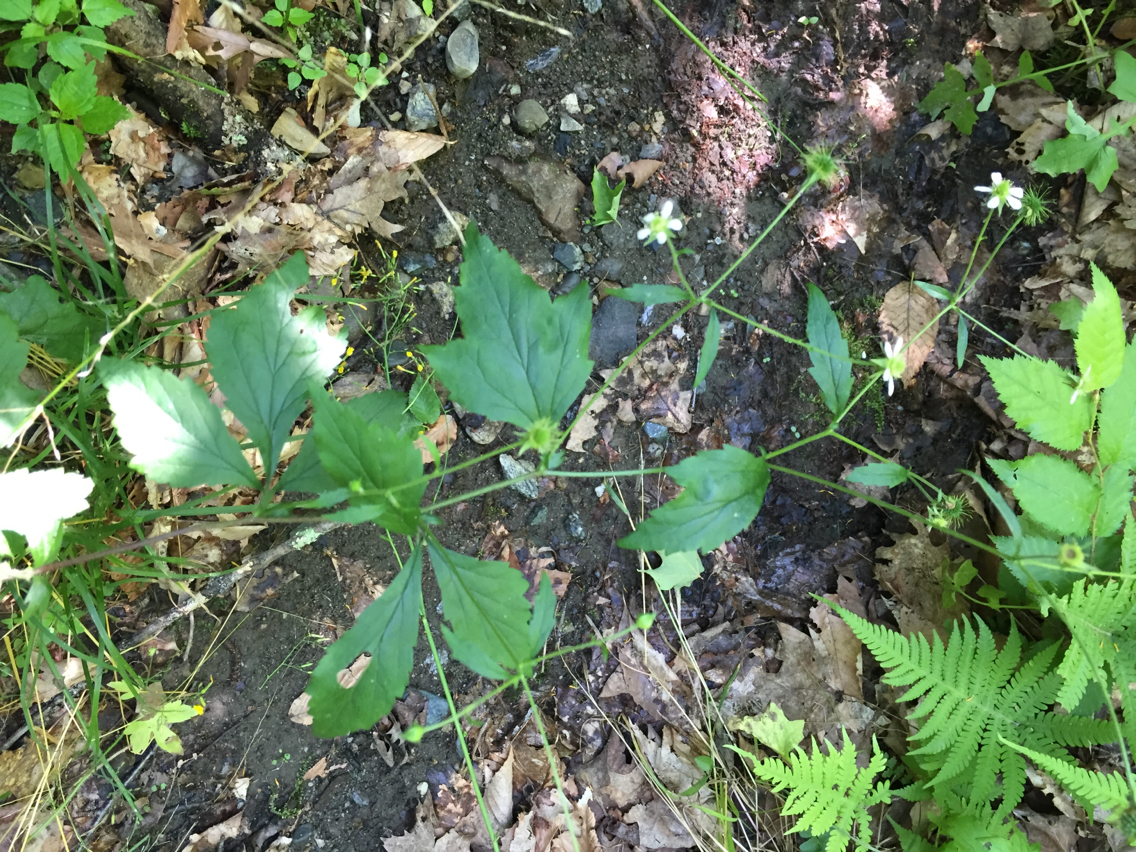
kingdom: Plantae
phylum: Tracheophyta
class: Magnoliopsida
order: Ranunculales
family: Ranunculaceae
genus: Clematis
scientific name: Clematis virginiana
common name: Virgin's-bower
